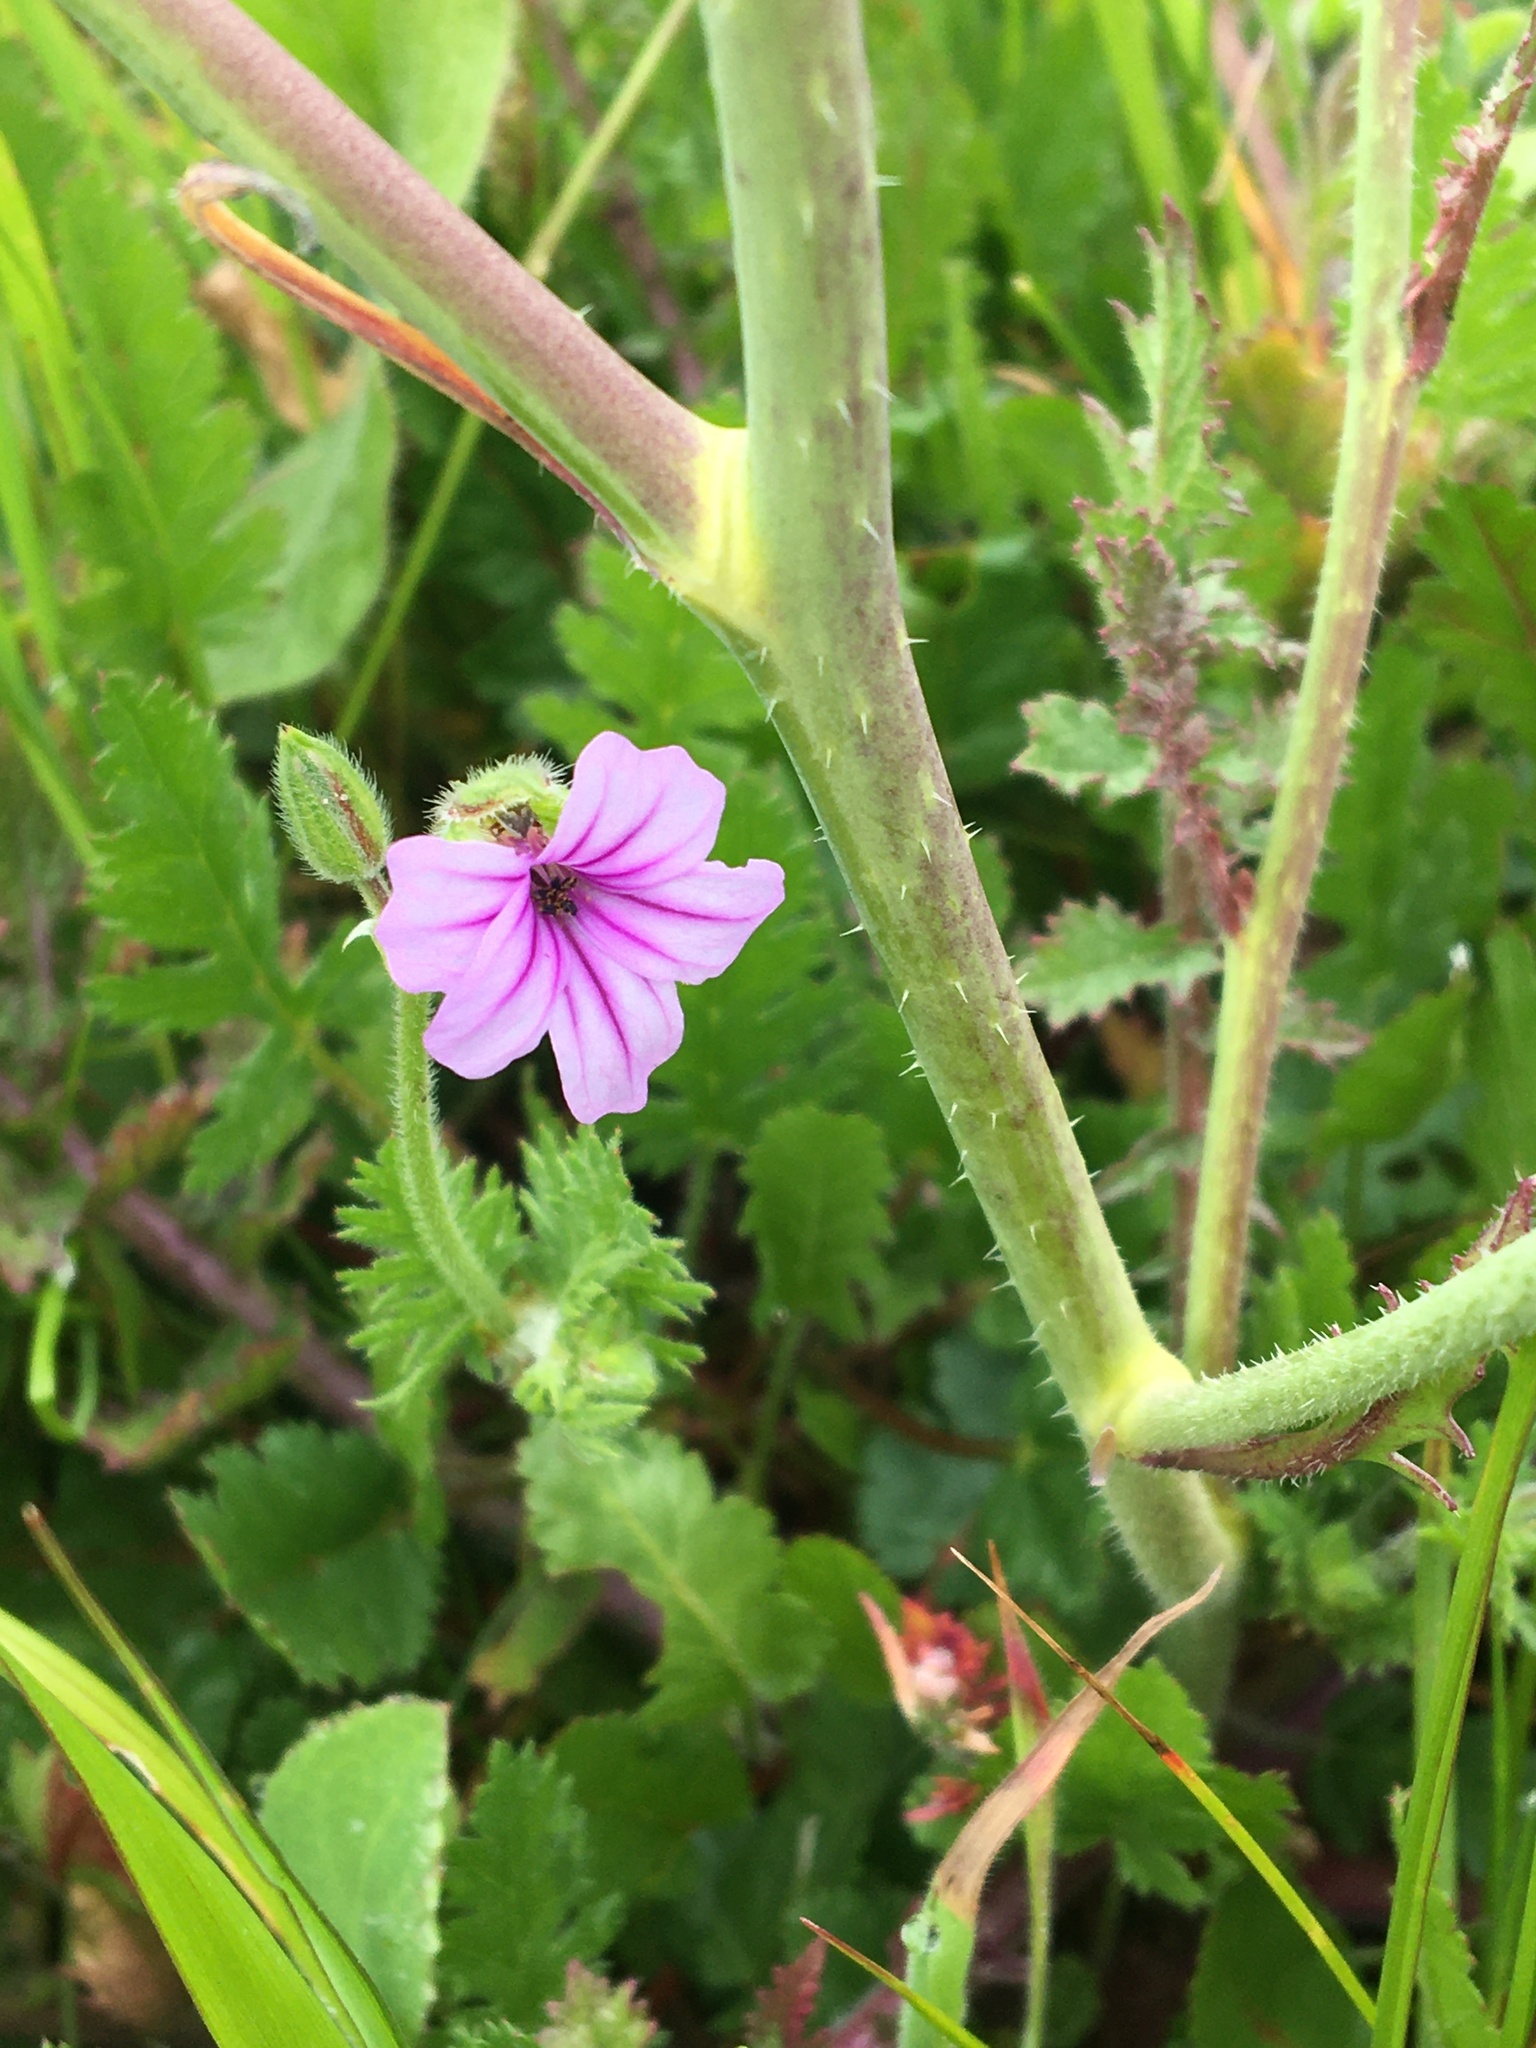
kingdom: Plantae
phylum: Tracheophyta
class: Magnoliopsida
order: Geraniales
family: Geraniaceae
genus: Erodium
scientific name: Erodium botrys
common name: Mediterranean stork's-bill
